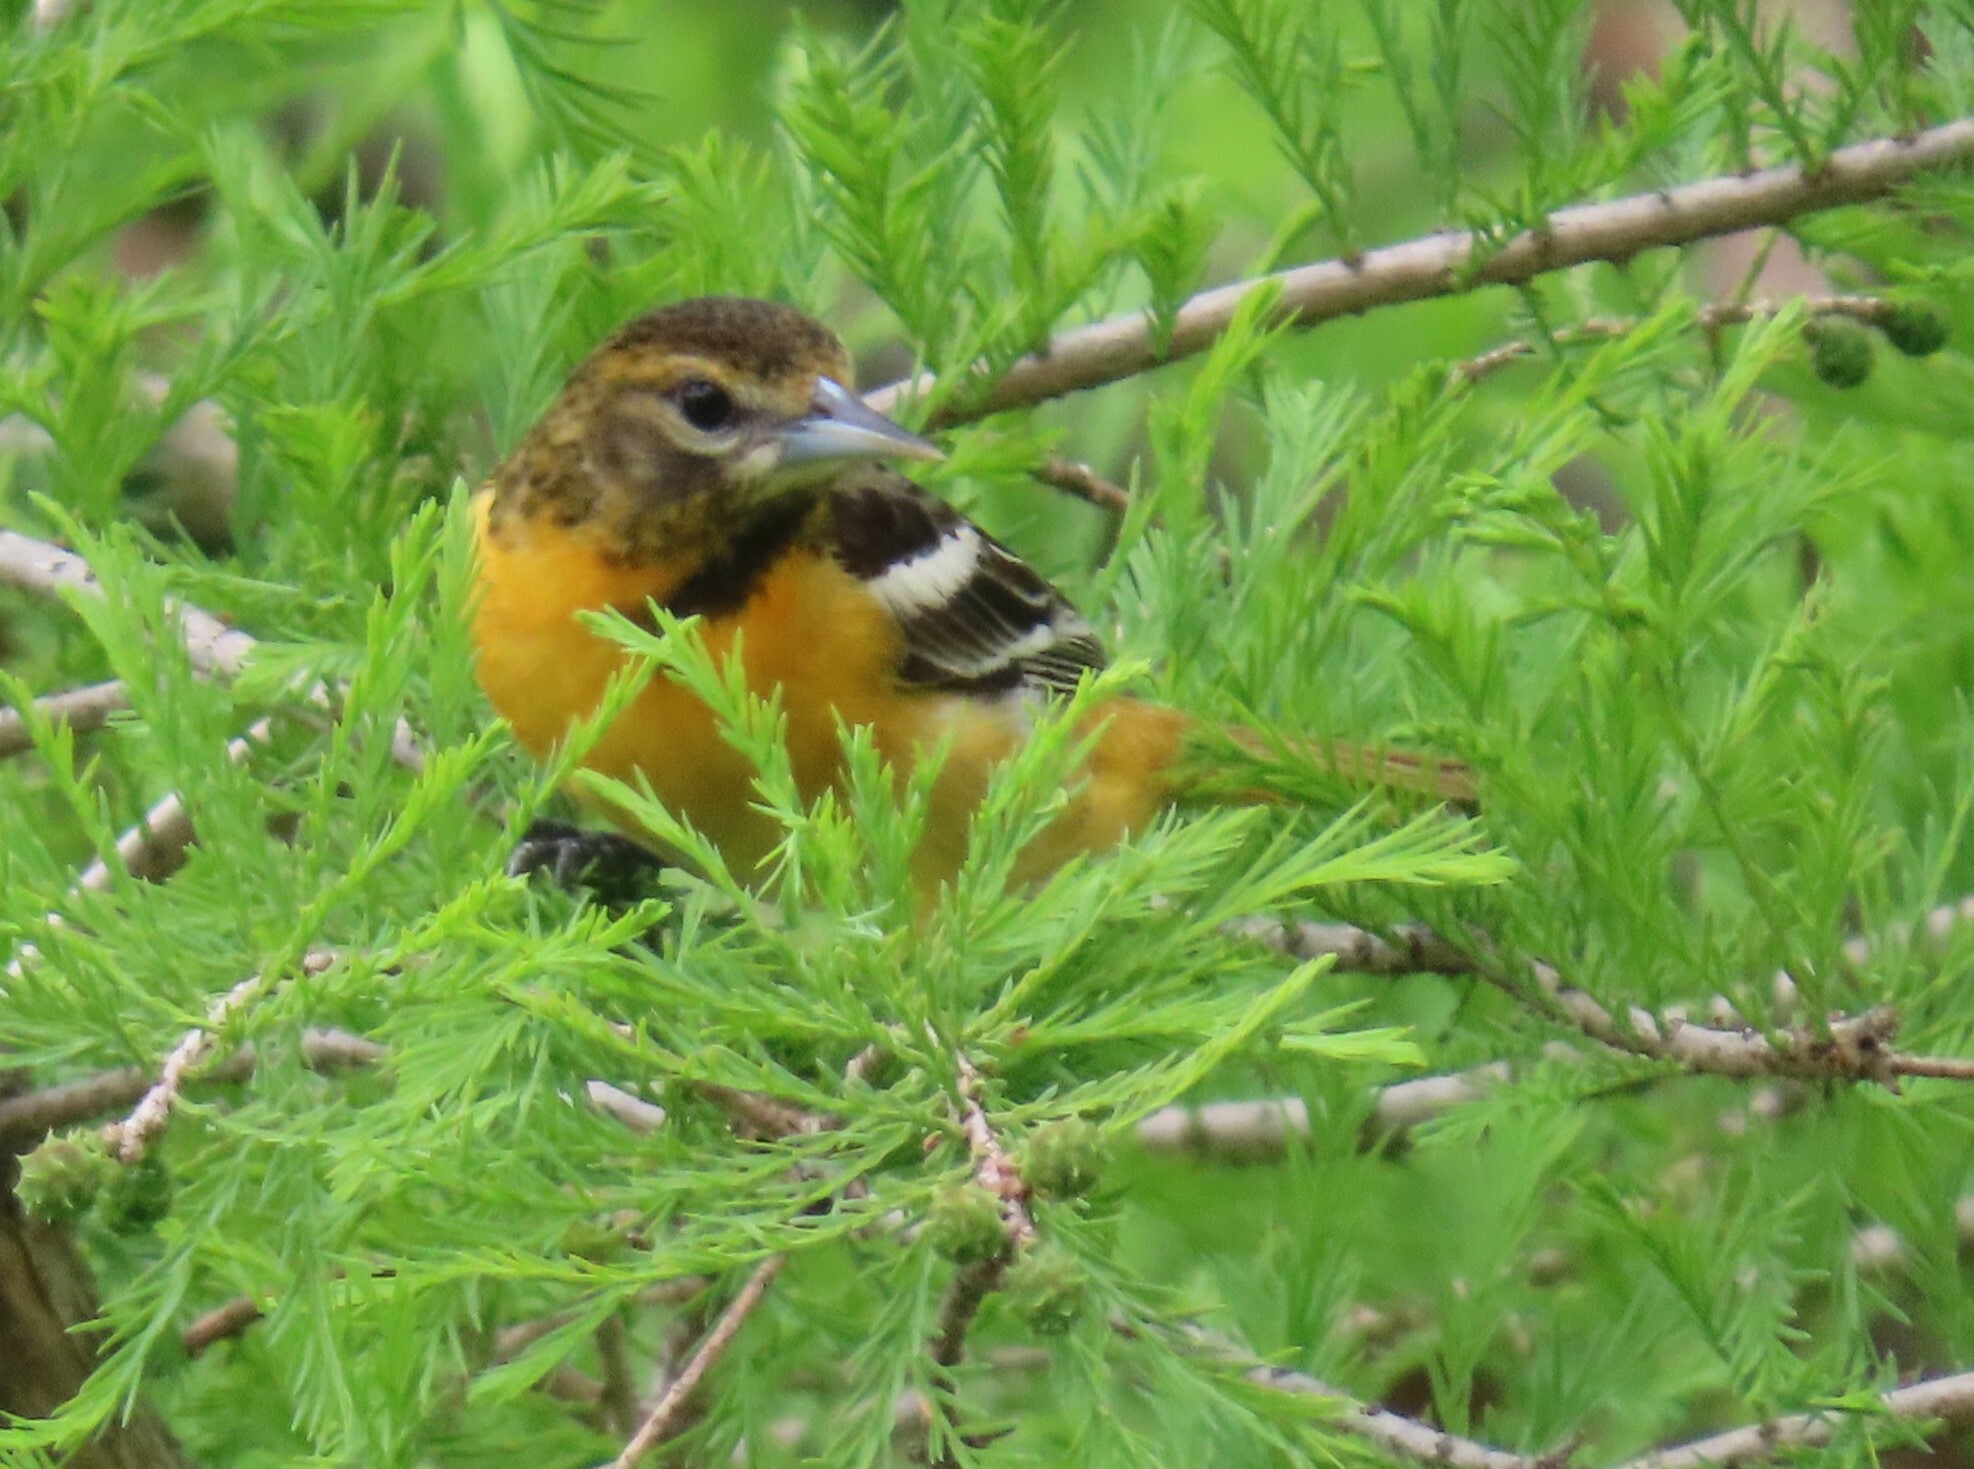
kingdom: Animalia
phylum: Chordata
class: Aves
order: Passeriformes
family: Icteridae
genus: Icterus
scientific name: Icterus galbula
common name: Baltimore oriole
